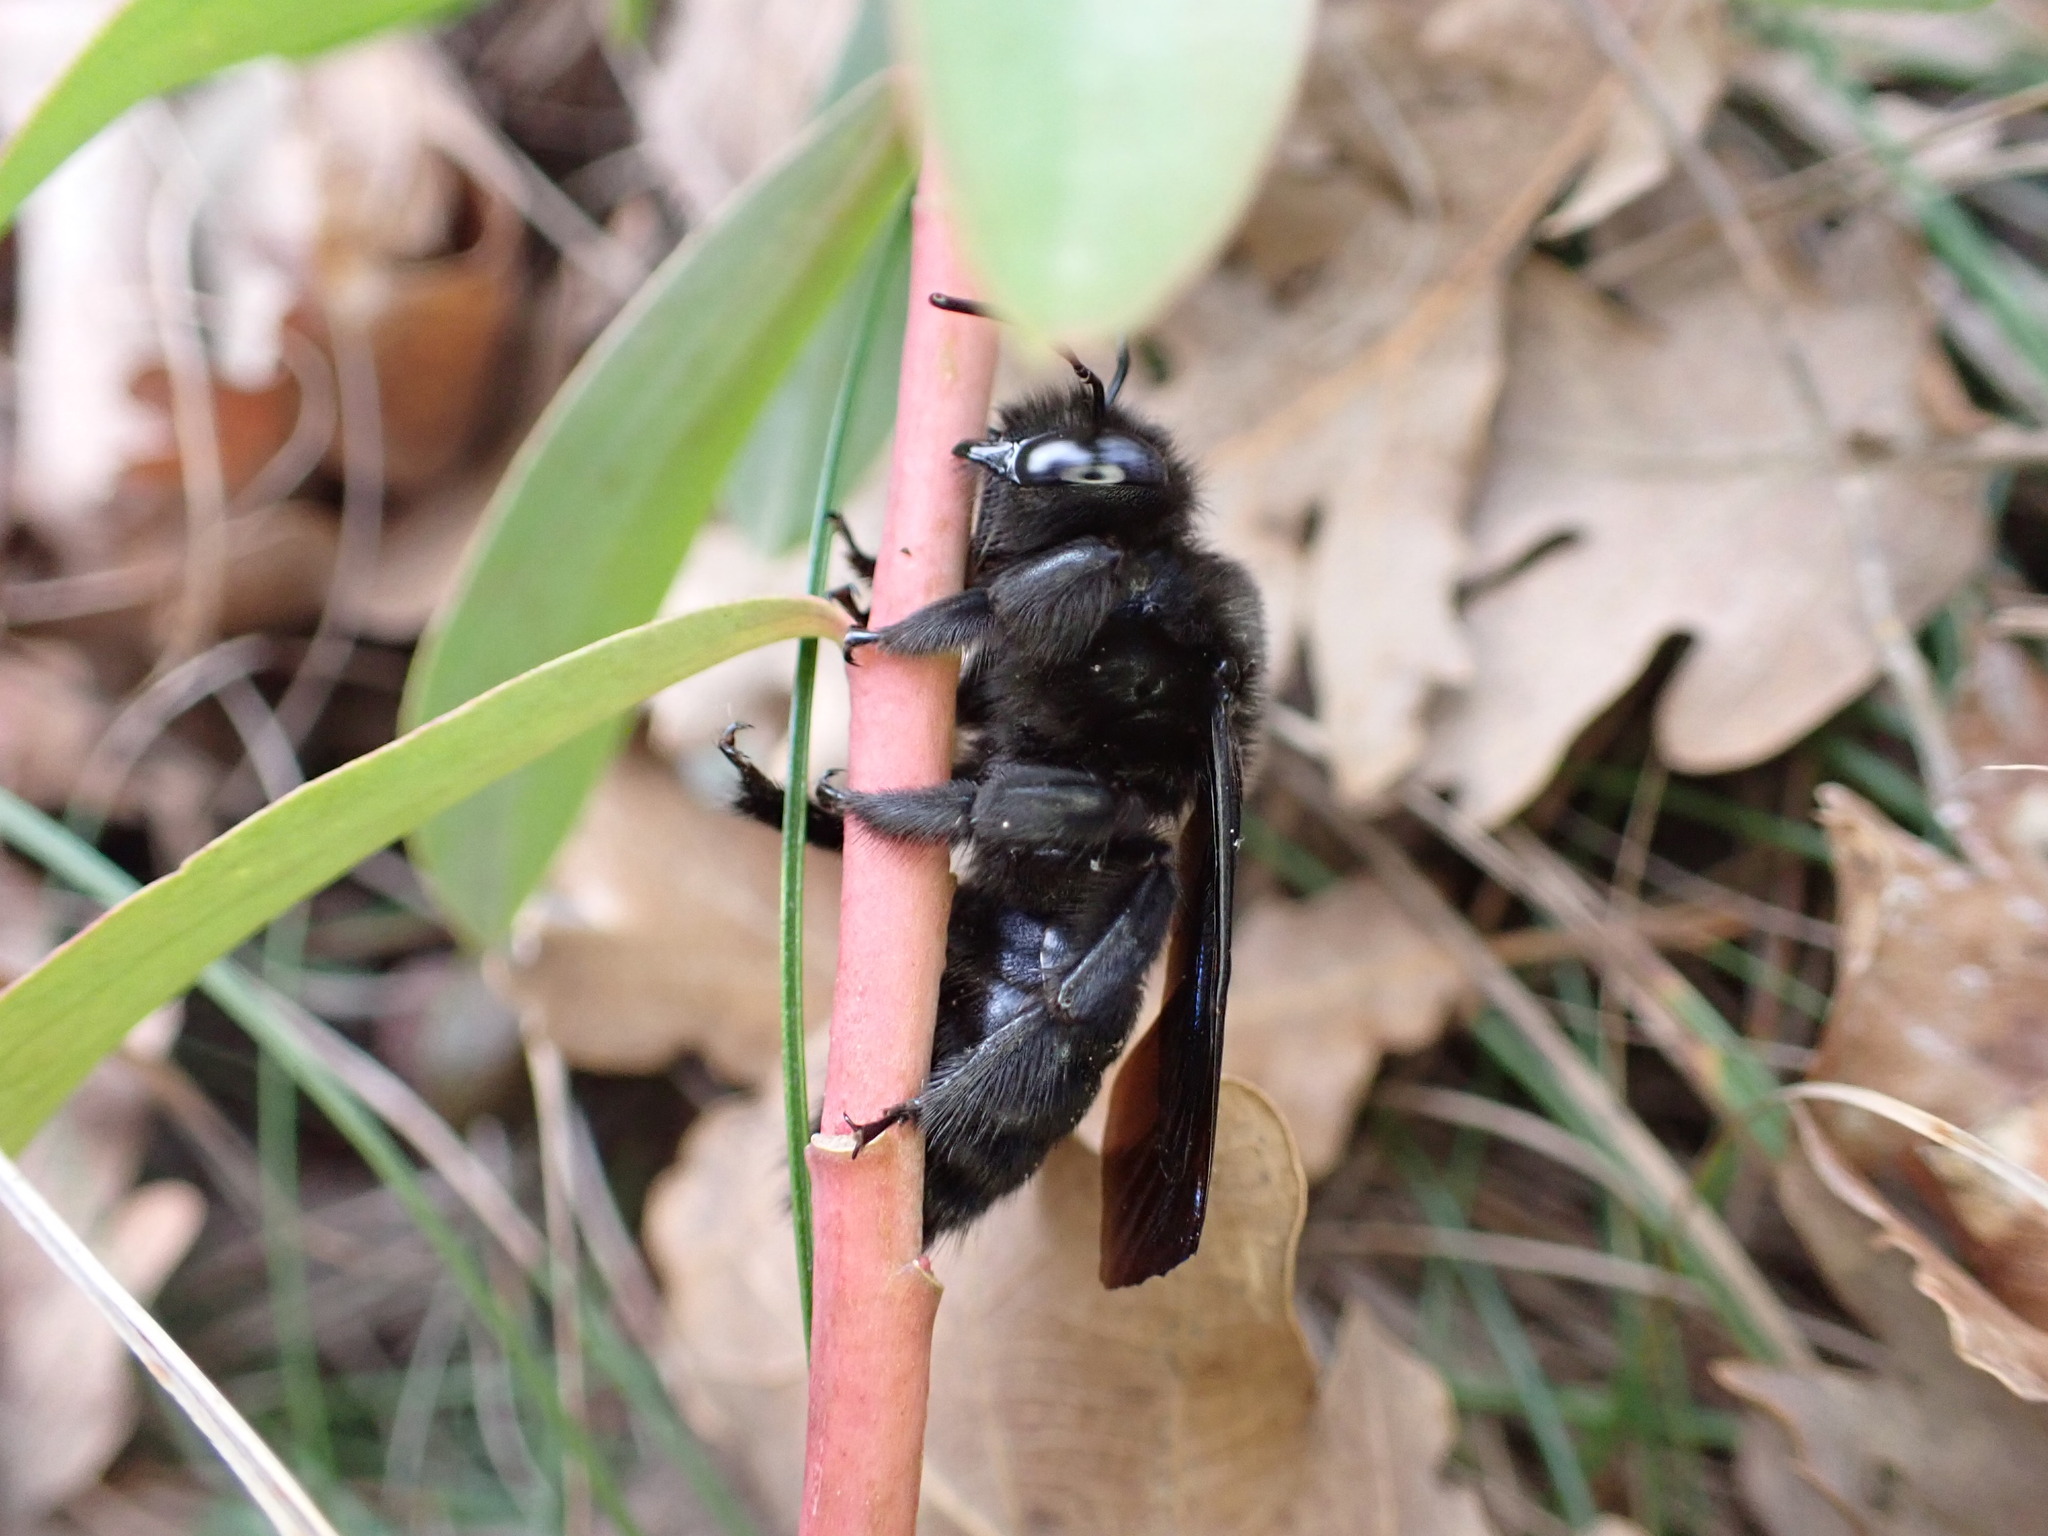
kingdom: Animalia
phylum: Arthropoda
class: Insecta
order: Hymenoptera
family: Apidae
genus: Xylocopa
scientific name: Xylocopa valga
